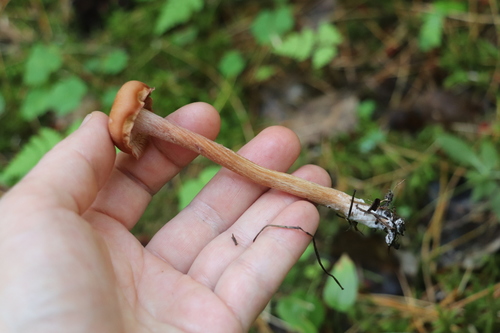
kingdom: Fungi
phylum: Basidiomycota
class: Agaricomycetes
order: Agaricales
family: Hydnangiaceae
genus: Laccaria
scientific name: Laccaria bicolor
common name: Bicoloured deceiver
